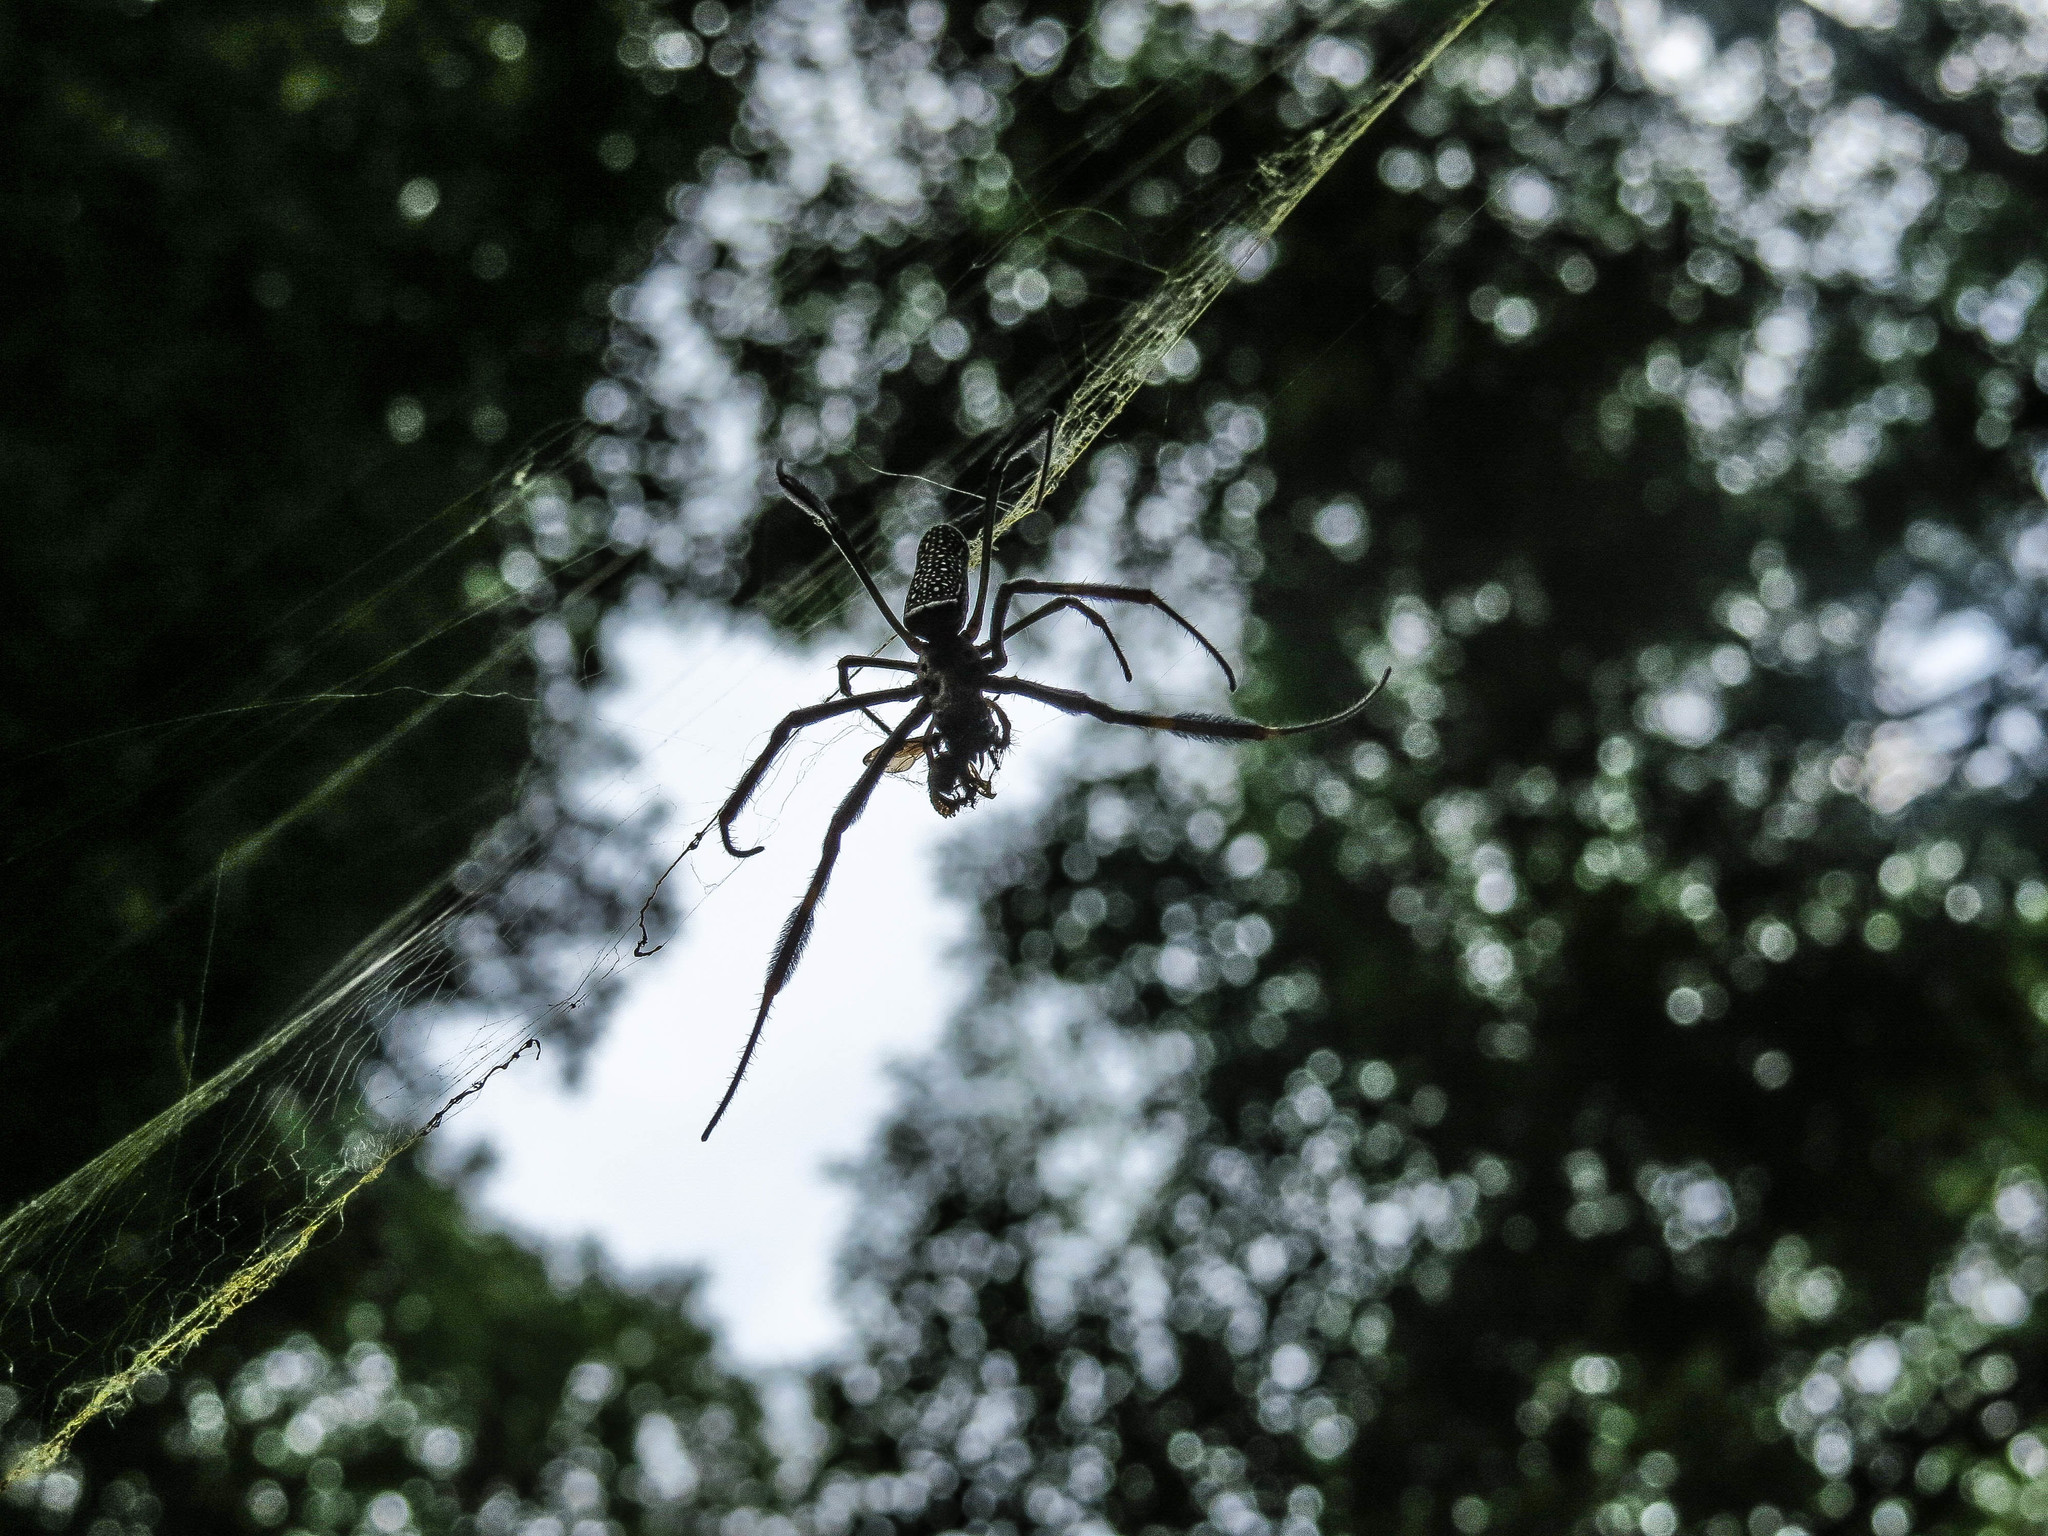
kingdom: Animalia
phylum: Arthropoda
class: Arachnida
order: Araneae
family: Araneidae
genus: Trichonephila
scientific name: Trichonephila clavipes
